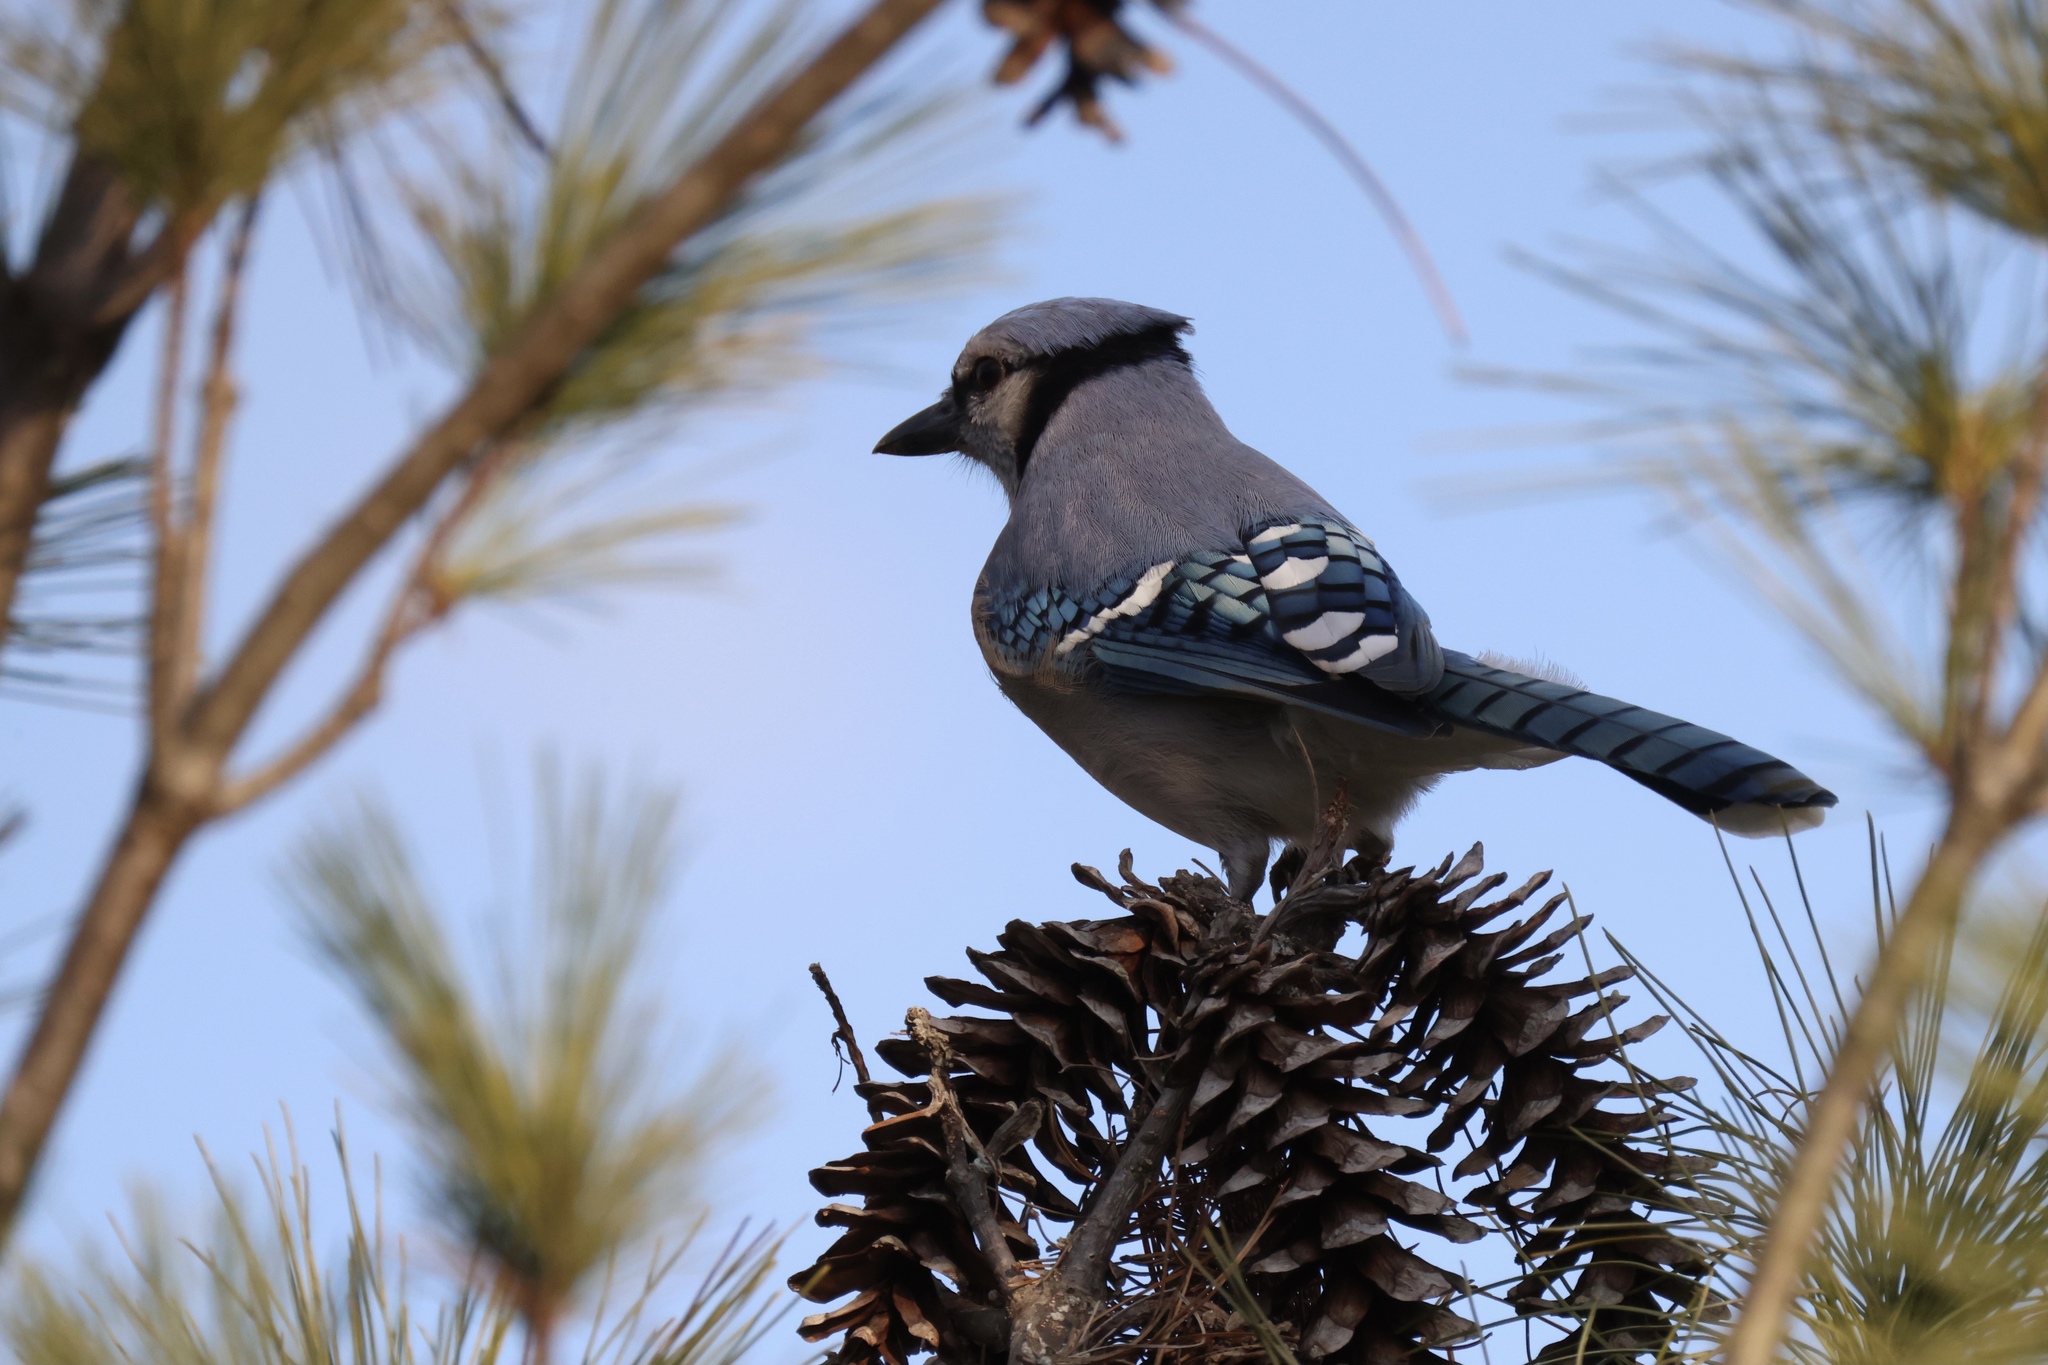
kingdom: Animalia
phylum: Chordata
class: Aves
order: Passeriformes
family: Corvidae
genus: Cyanocitta
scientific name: Cyanocitta cristata
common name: Blue jay
